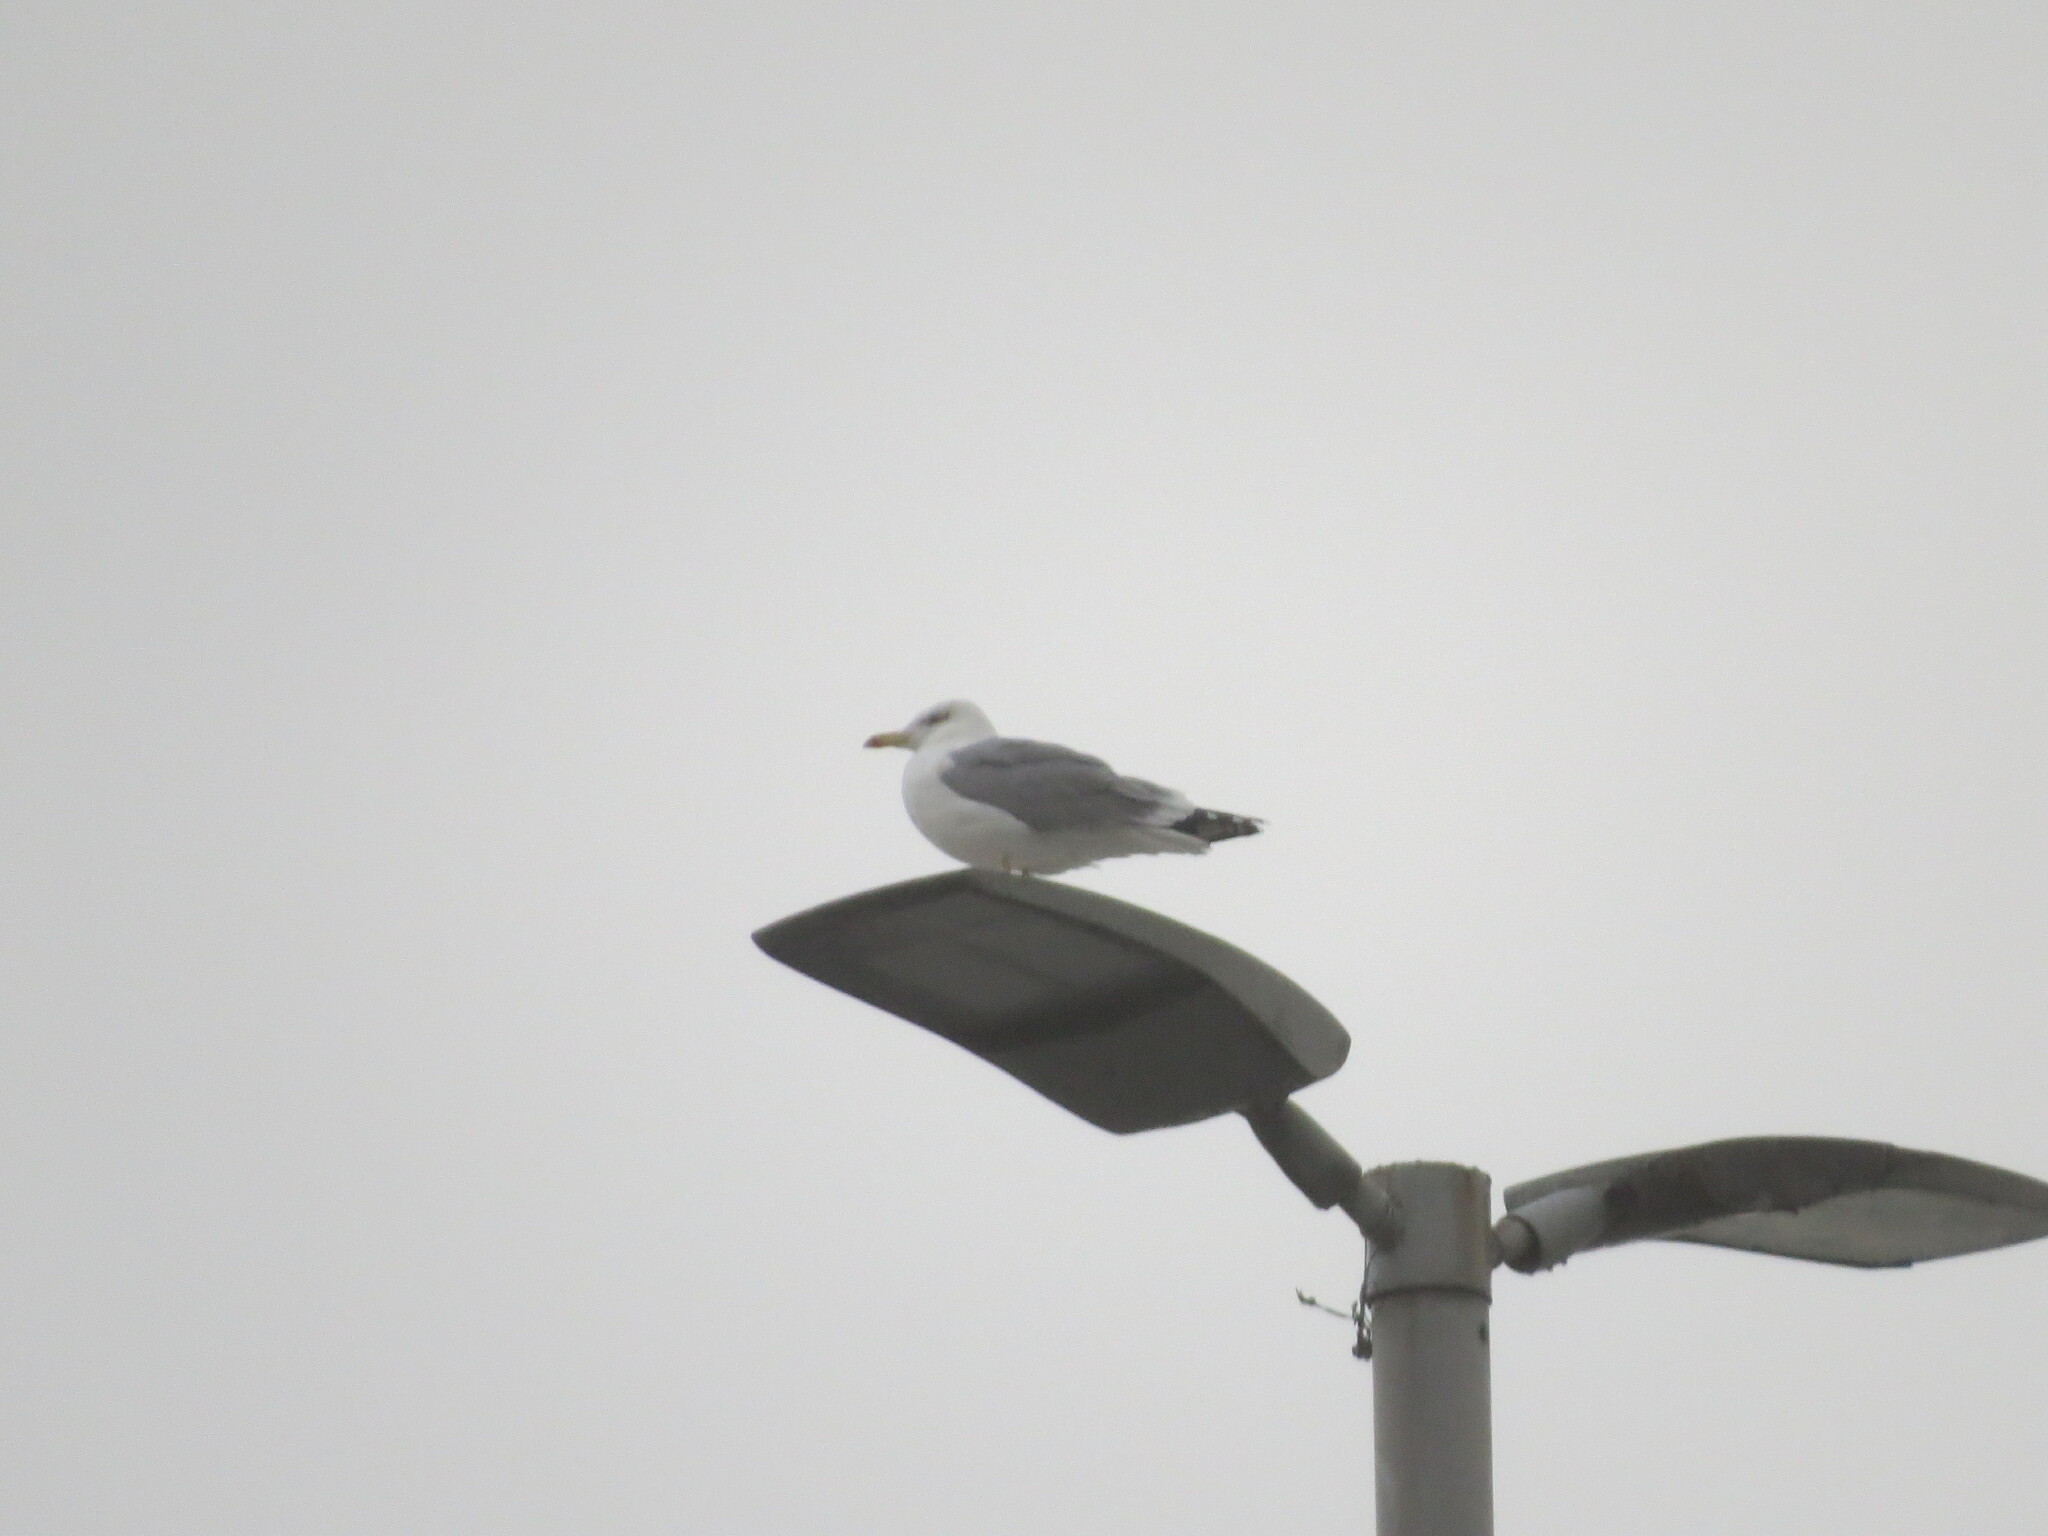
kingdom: Animalia
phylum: Chordata
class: Aves
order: Charadriiformes
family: Laridae
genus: Larus
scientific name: Larus michahellis
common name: Yellow-legged gull
